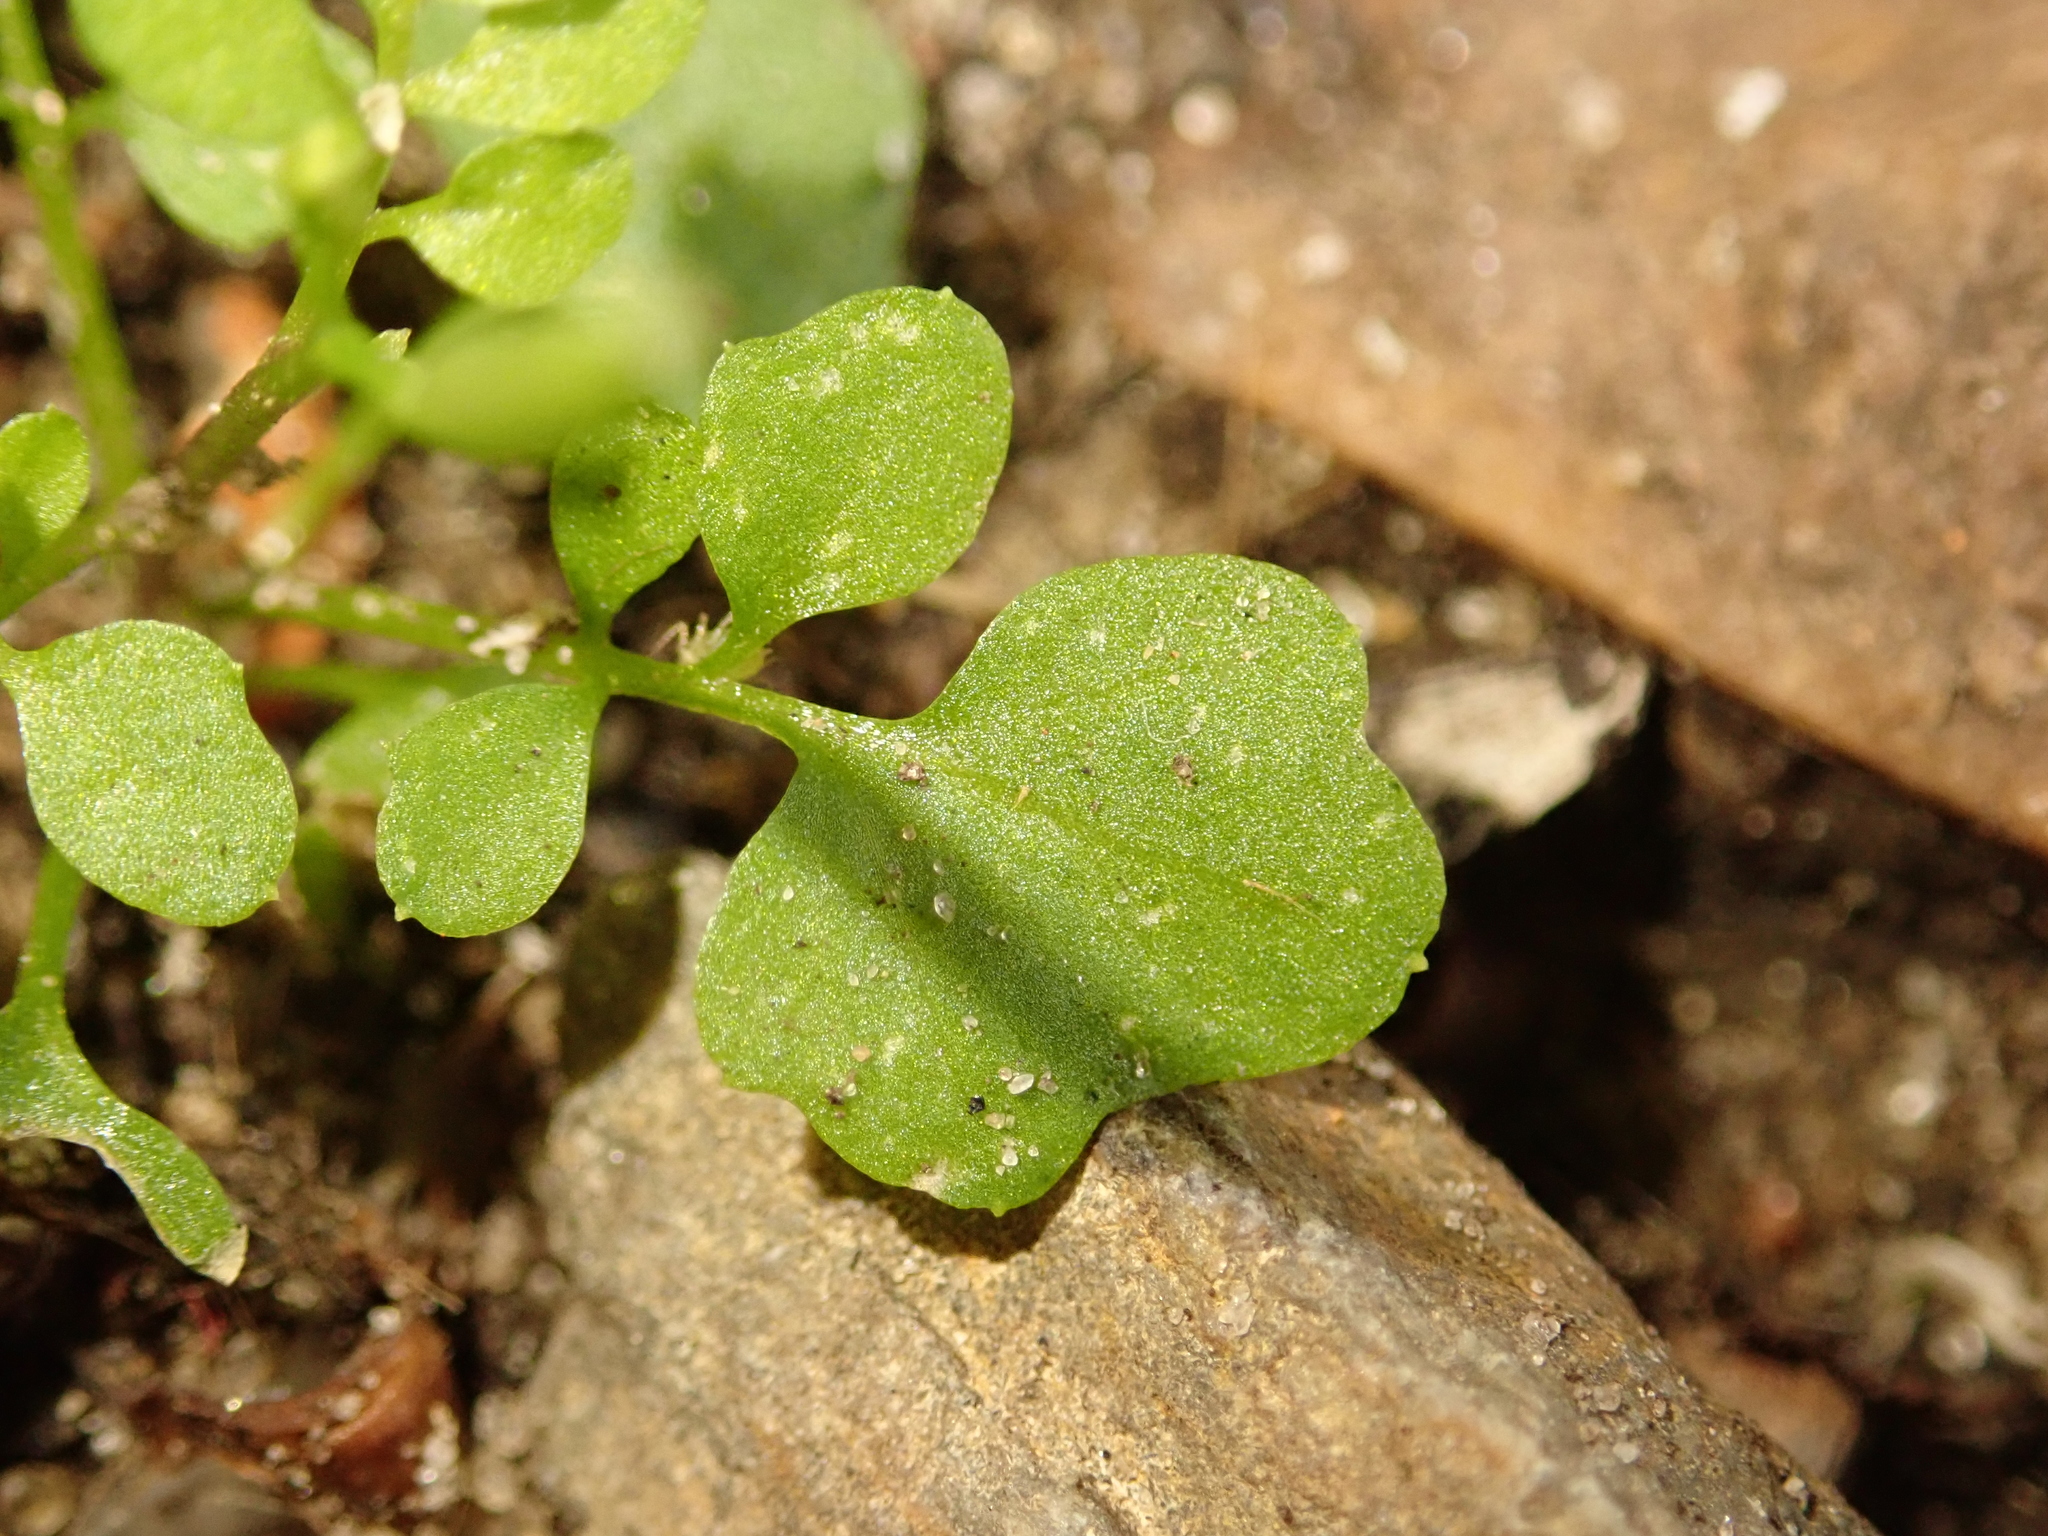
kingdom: Plantae
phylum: Tracheophyta
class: Magnoliopsida
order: Brassicales
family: Brassicaceae
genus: Cardamine
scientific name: Cardamine hirsuta
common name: Hairy bittercress
